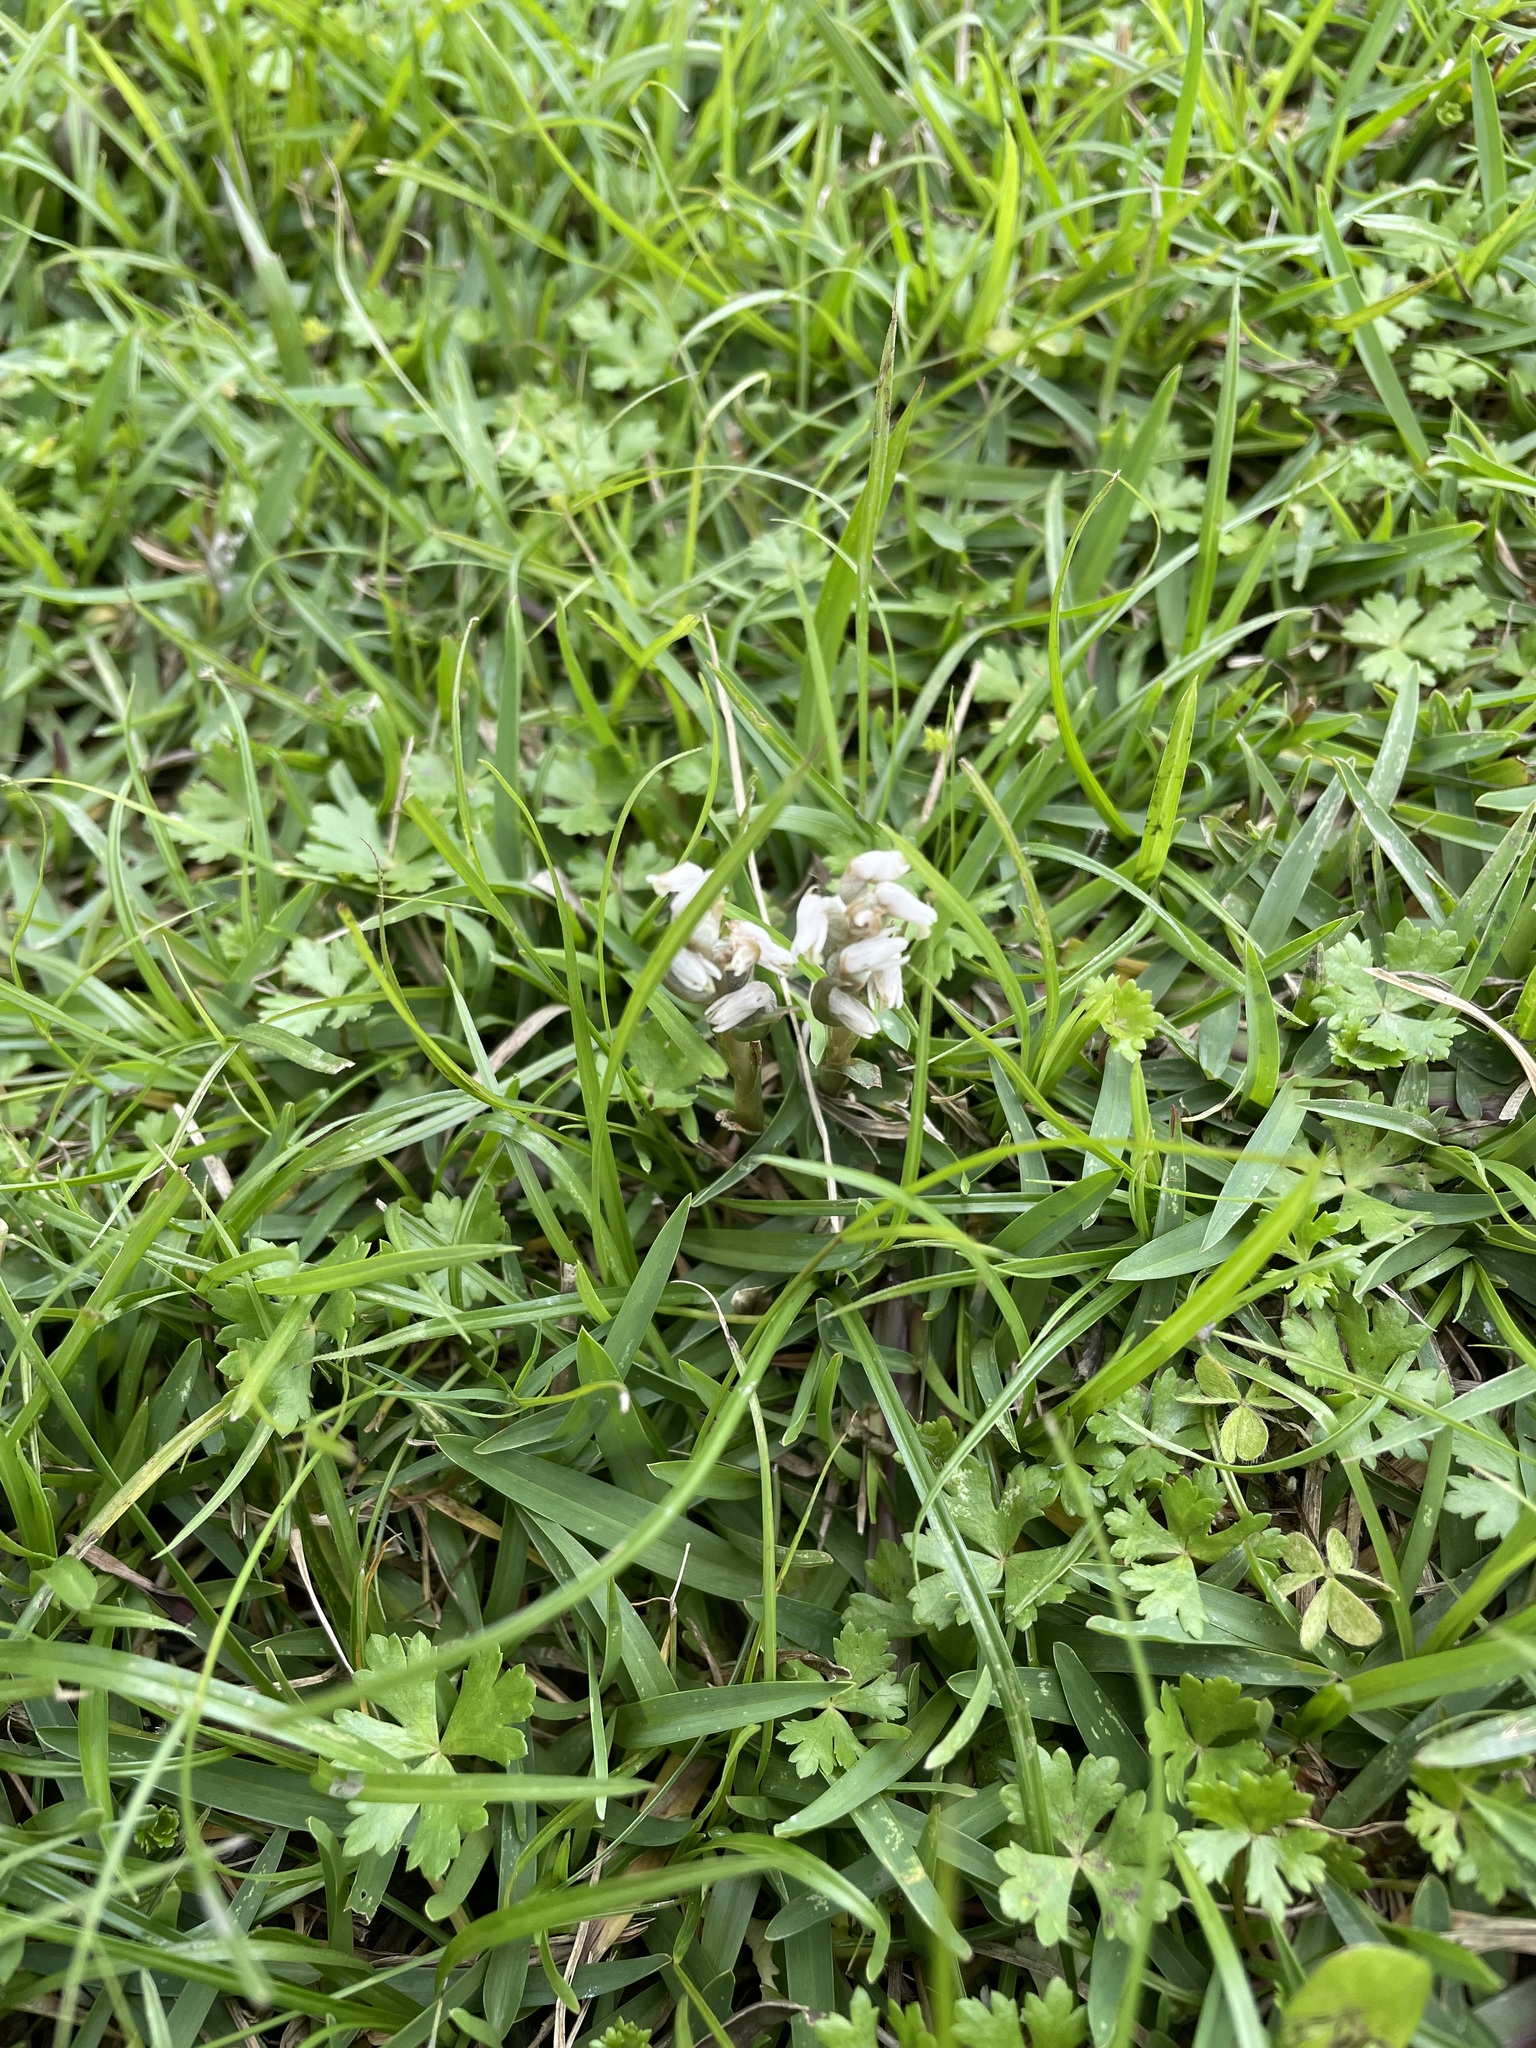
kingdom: Plantae
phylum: Tracheophyta
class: Liliopsida
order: Asparagales
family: Orchidaceae
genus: Zeuxine
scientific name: Zeuxine strateumatica
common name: Soldier's orchid
